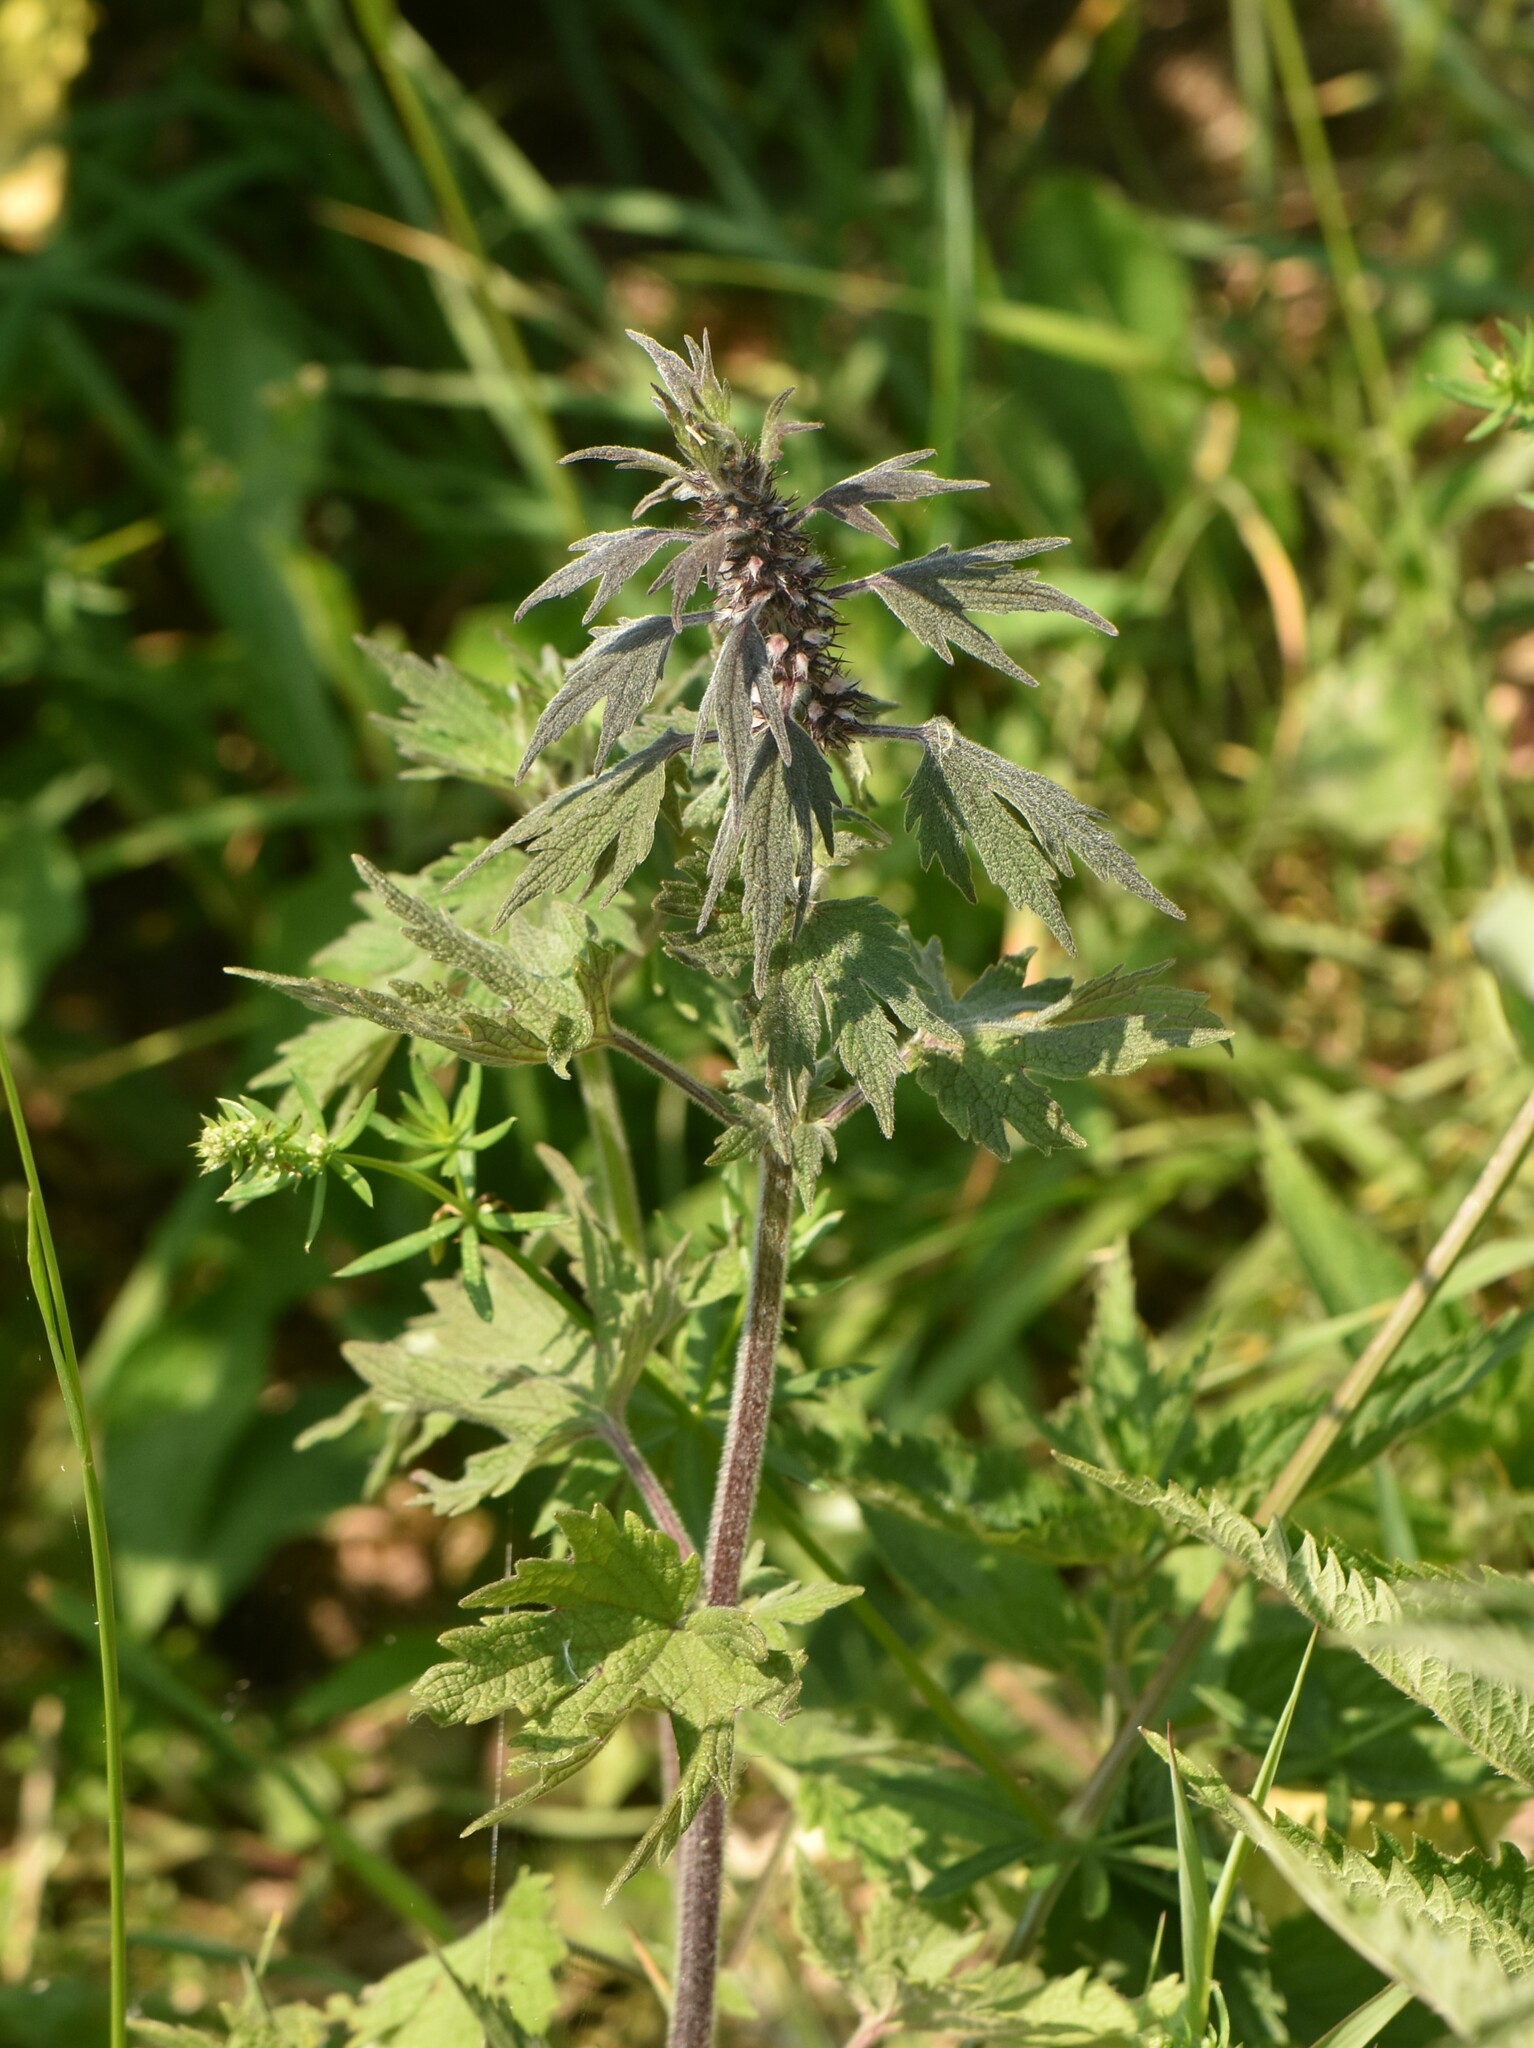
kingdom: Plantae
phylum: Tracheophyta
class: Magnoliopsida
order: Lamiales
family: Lamiaceae
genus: Leonurus
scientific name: Leonurus quinquelobatus
